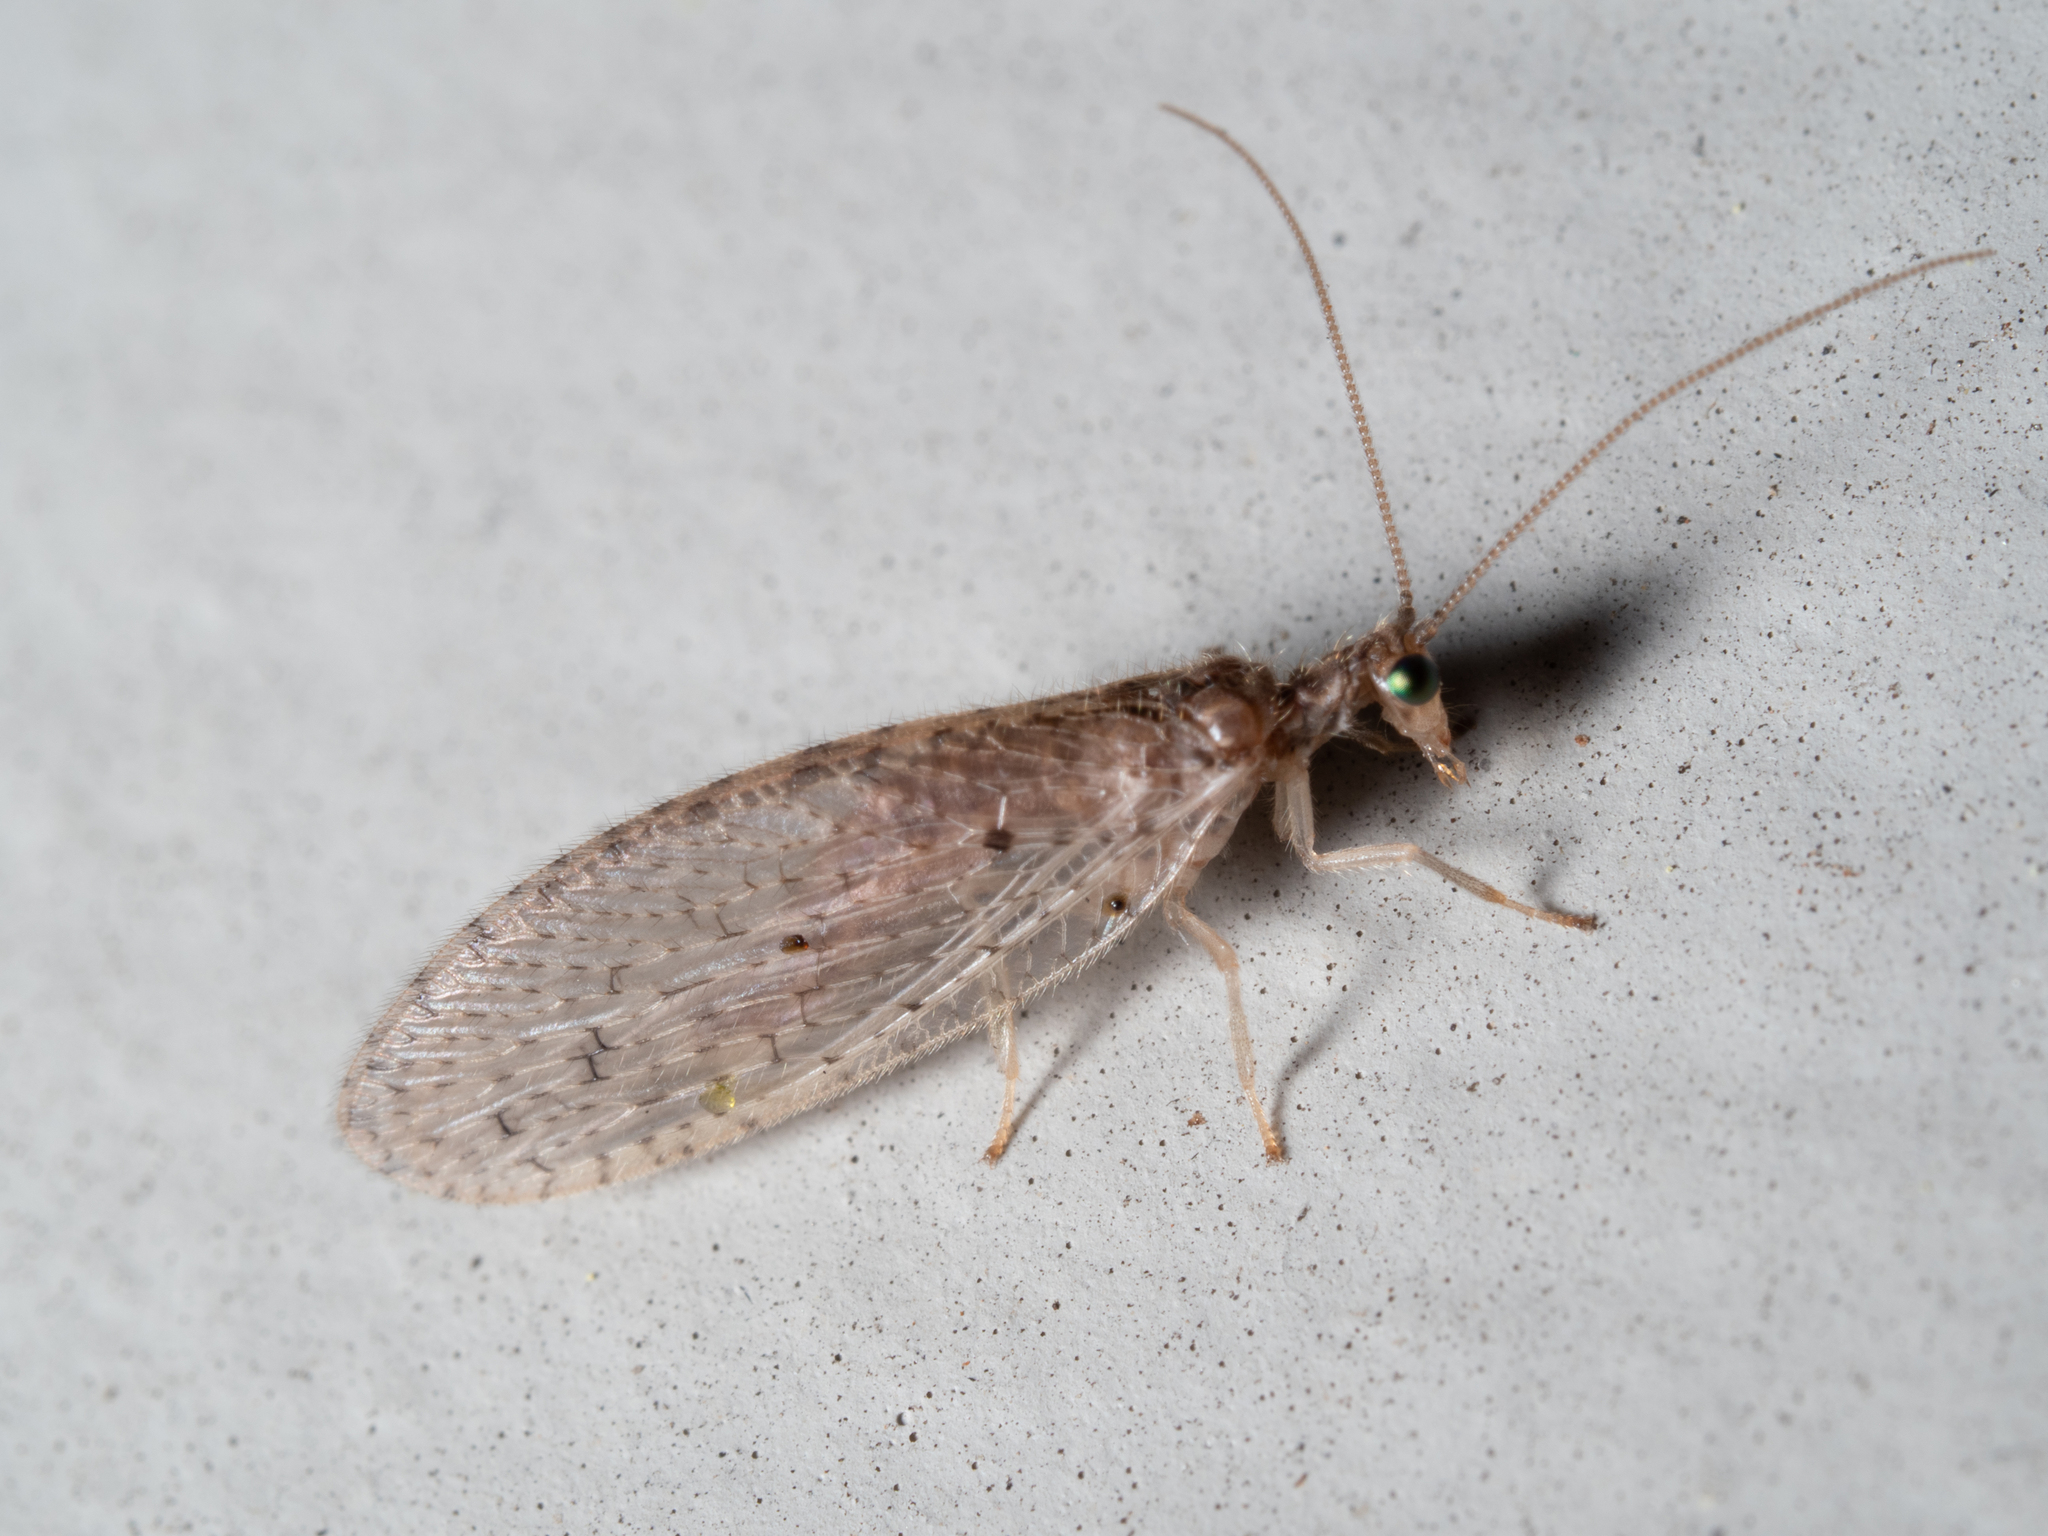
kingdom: Animalia
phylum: Arthropoda
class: Insecta
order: Neuroptera
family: Hemerobiidae
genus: Micromus
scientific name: Micromus tasmaniae
